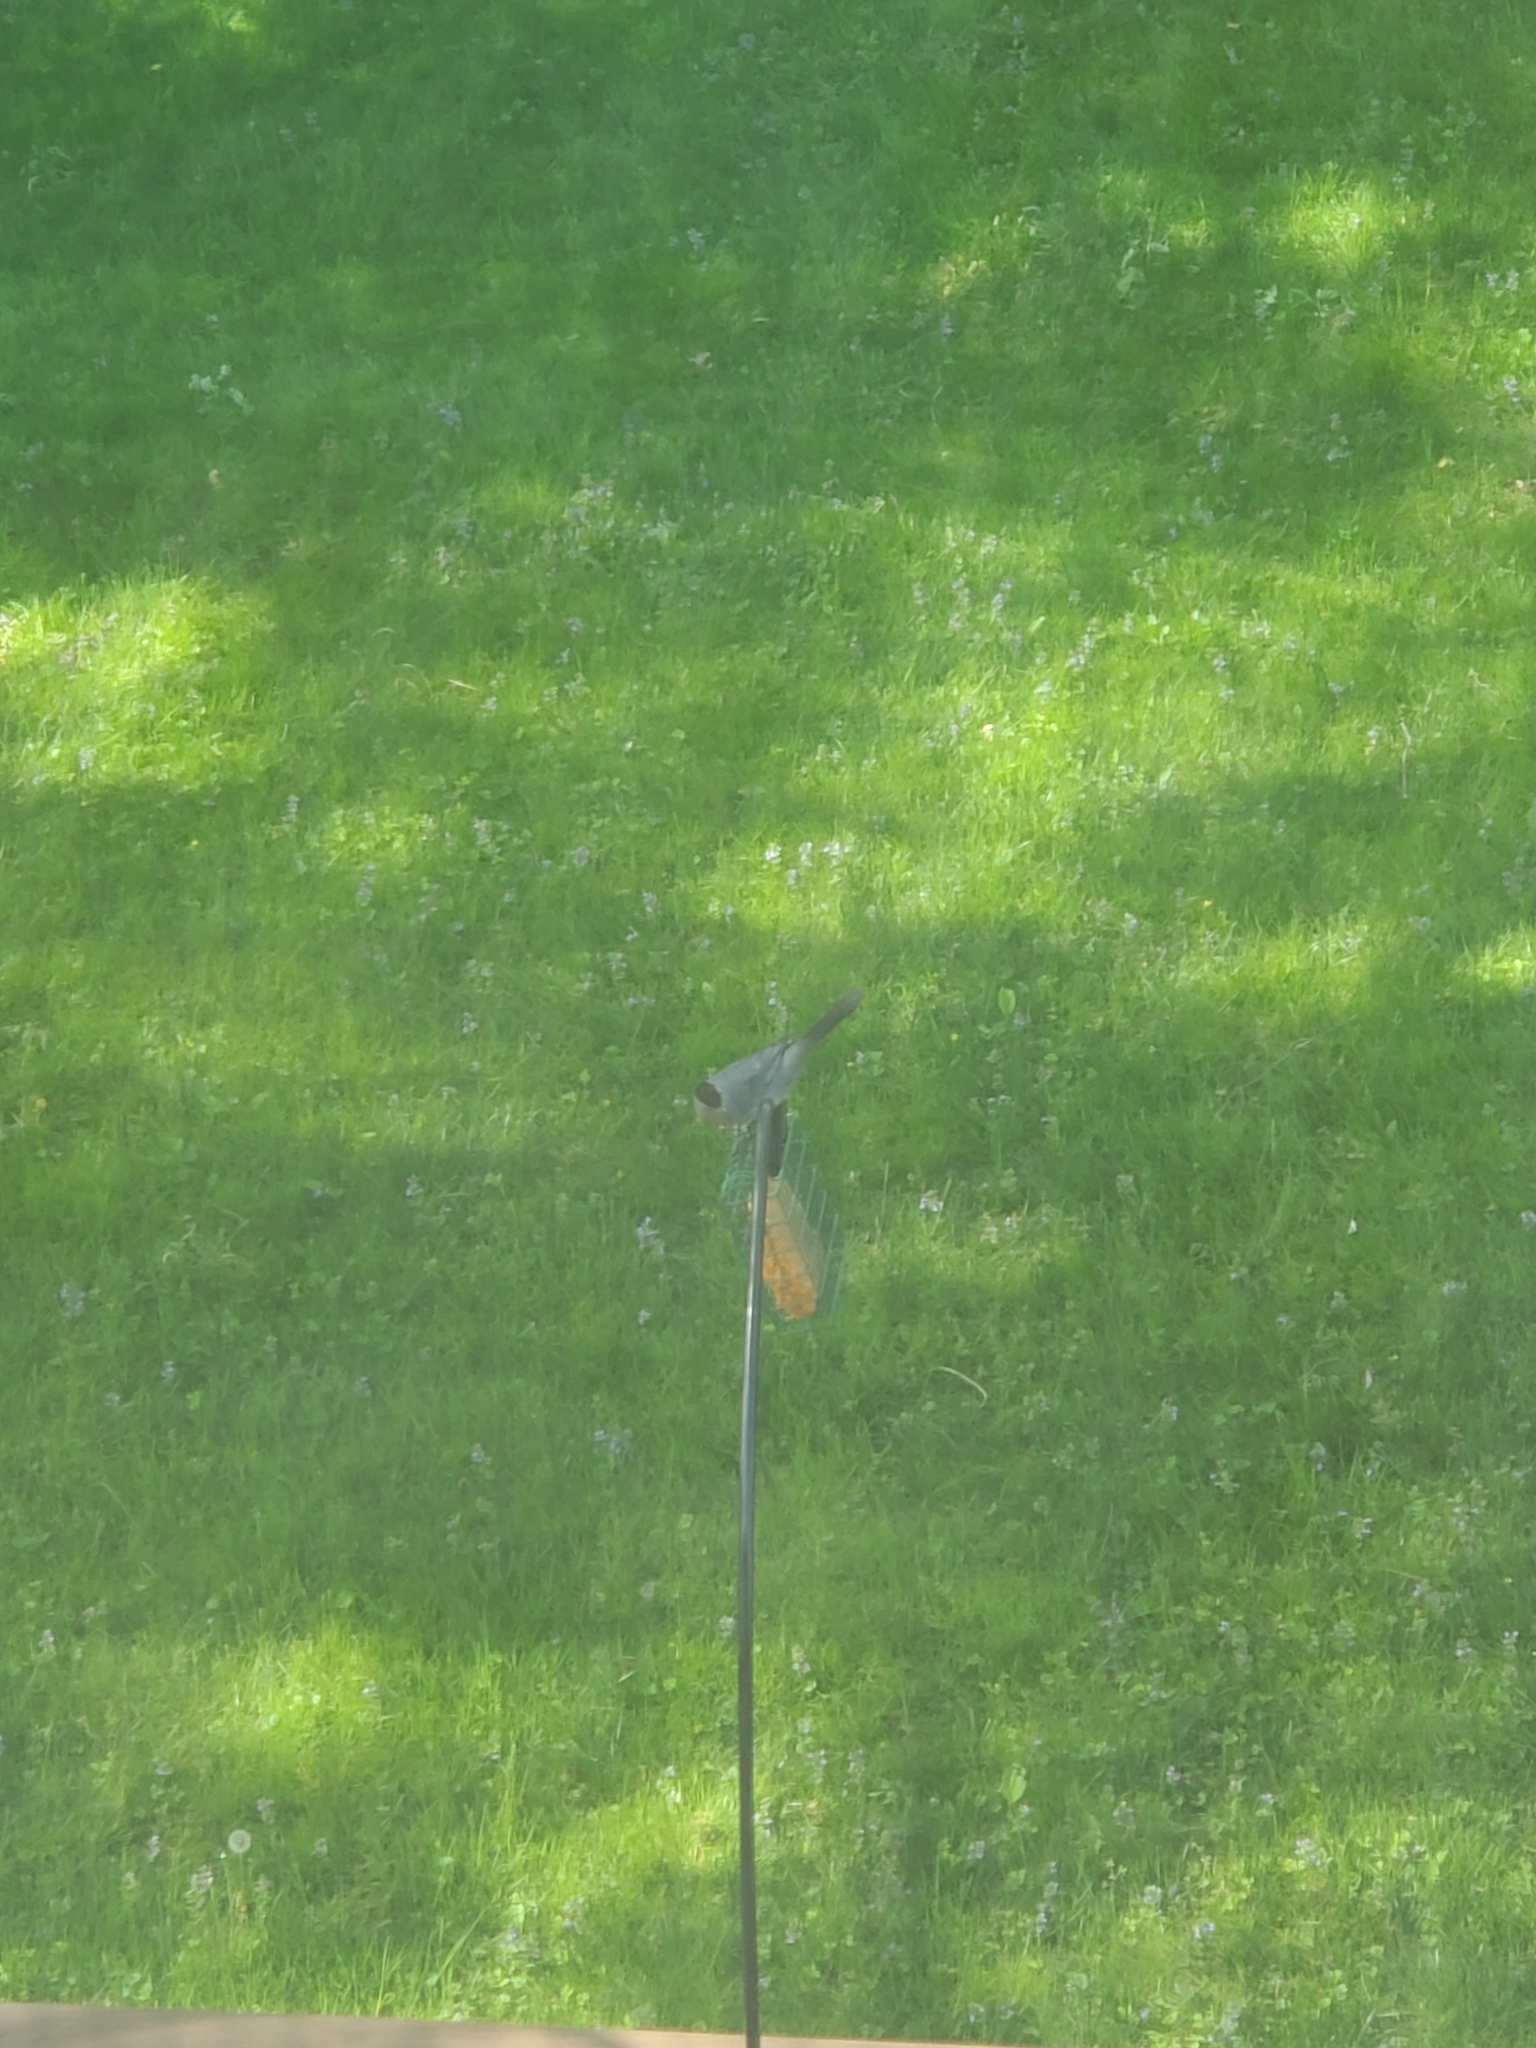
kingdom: Animalia
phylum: Chordata
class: Aves
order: Passeriformes
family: Mimidae
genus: Dumetella
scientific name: Dumetella carolinensis
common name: Gray catbird
